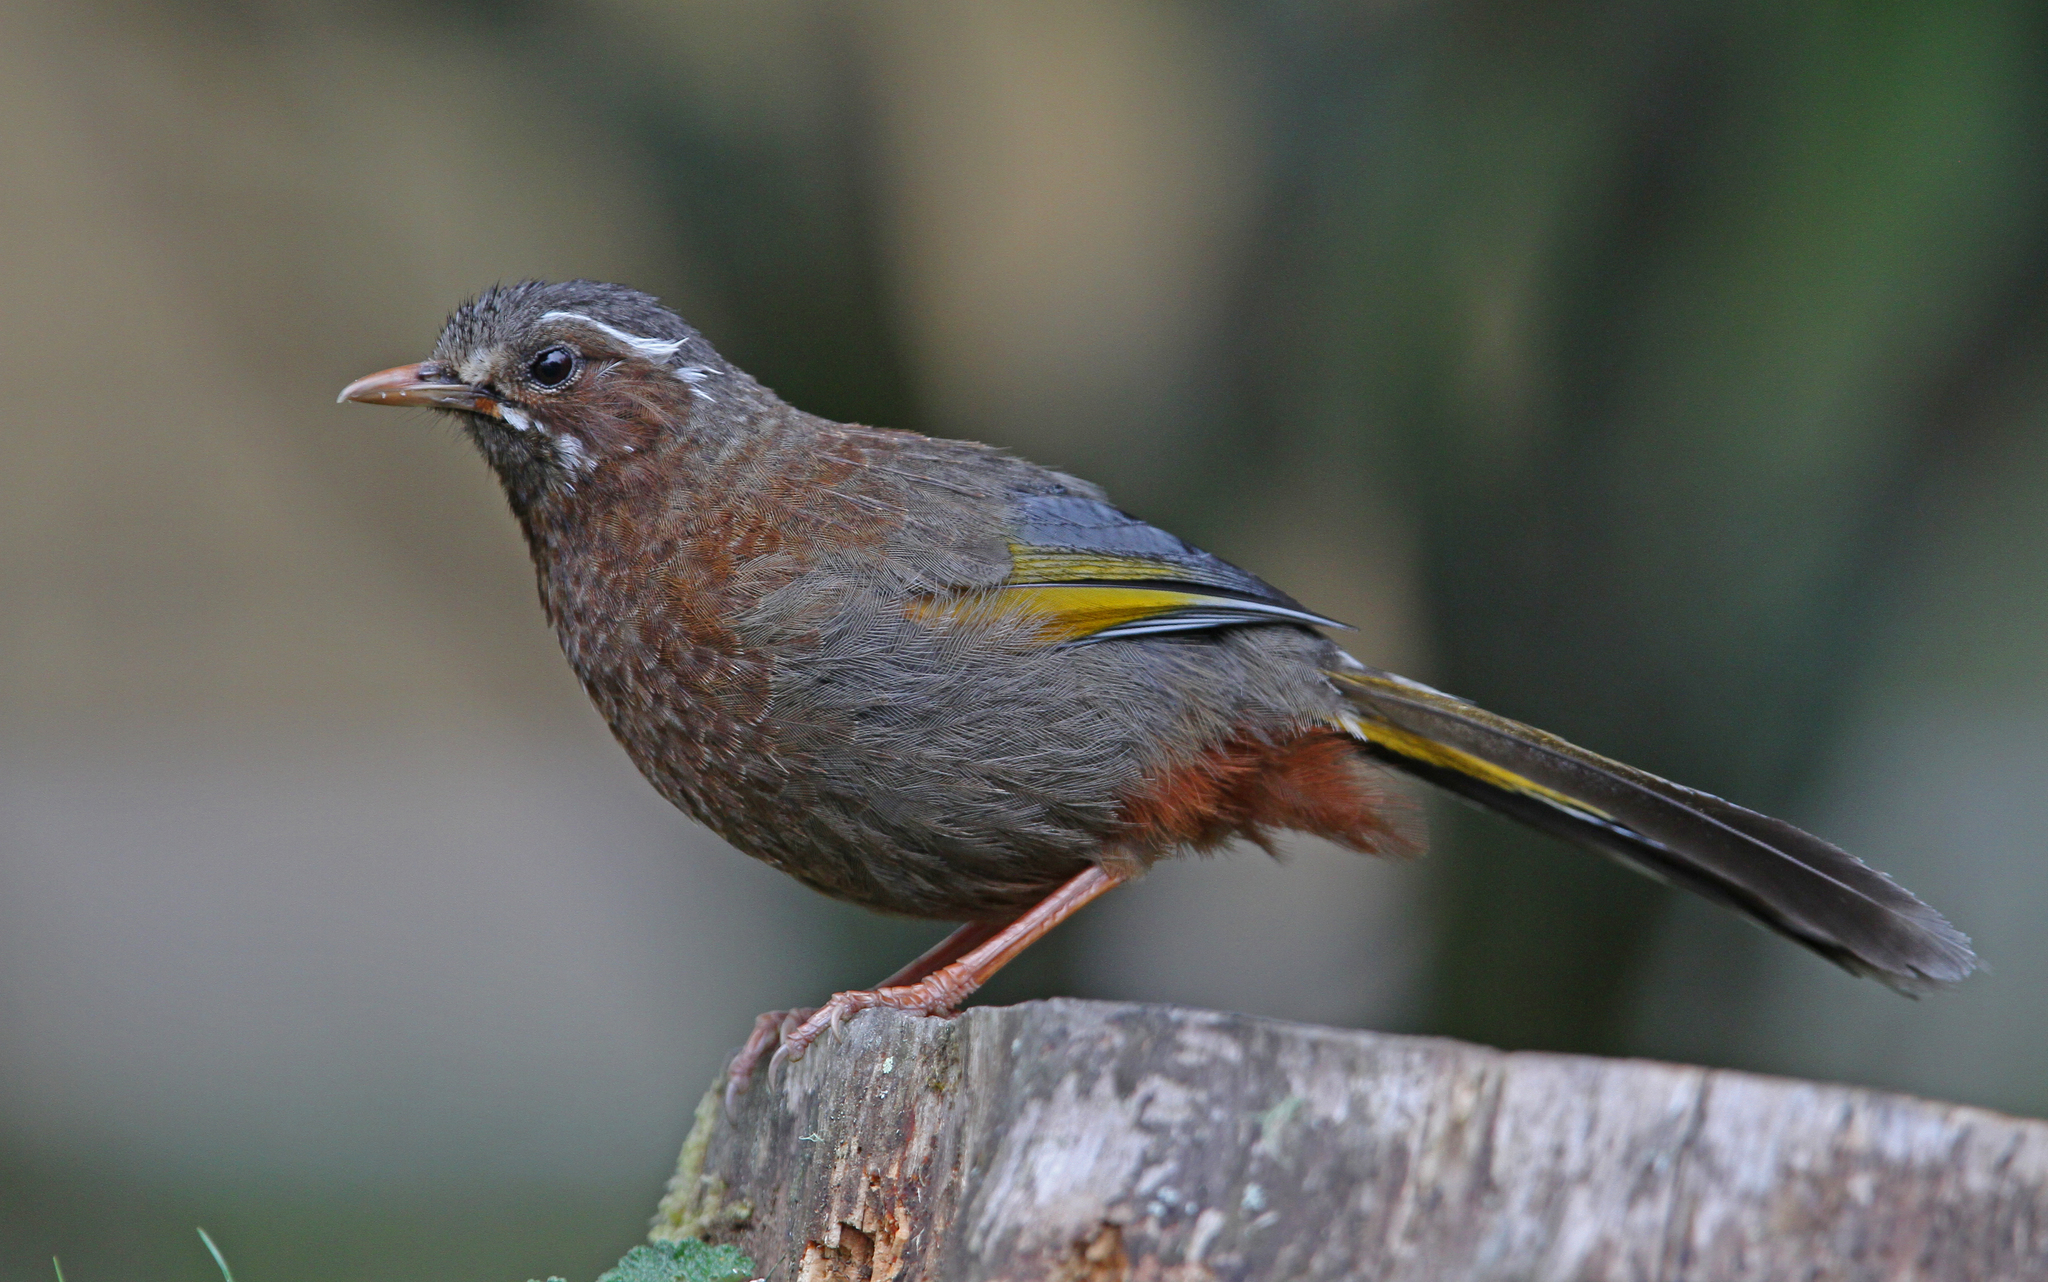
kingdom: Animalia
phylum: Chordata
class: Aves
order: Passeriformes
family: Leiothrichidae
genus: Trochalopteron
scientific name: Trochalopteron morrisonianum
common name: White-whiskered laughingthrush
